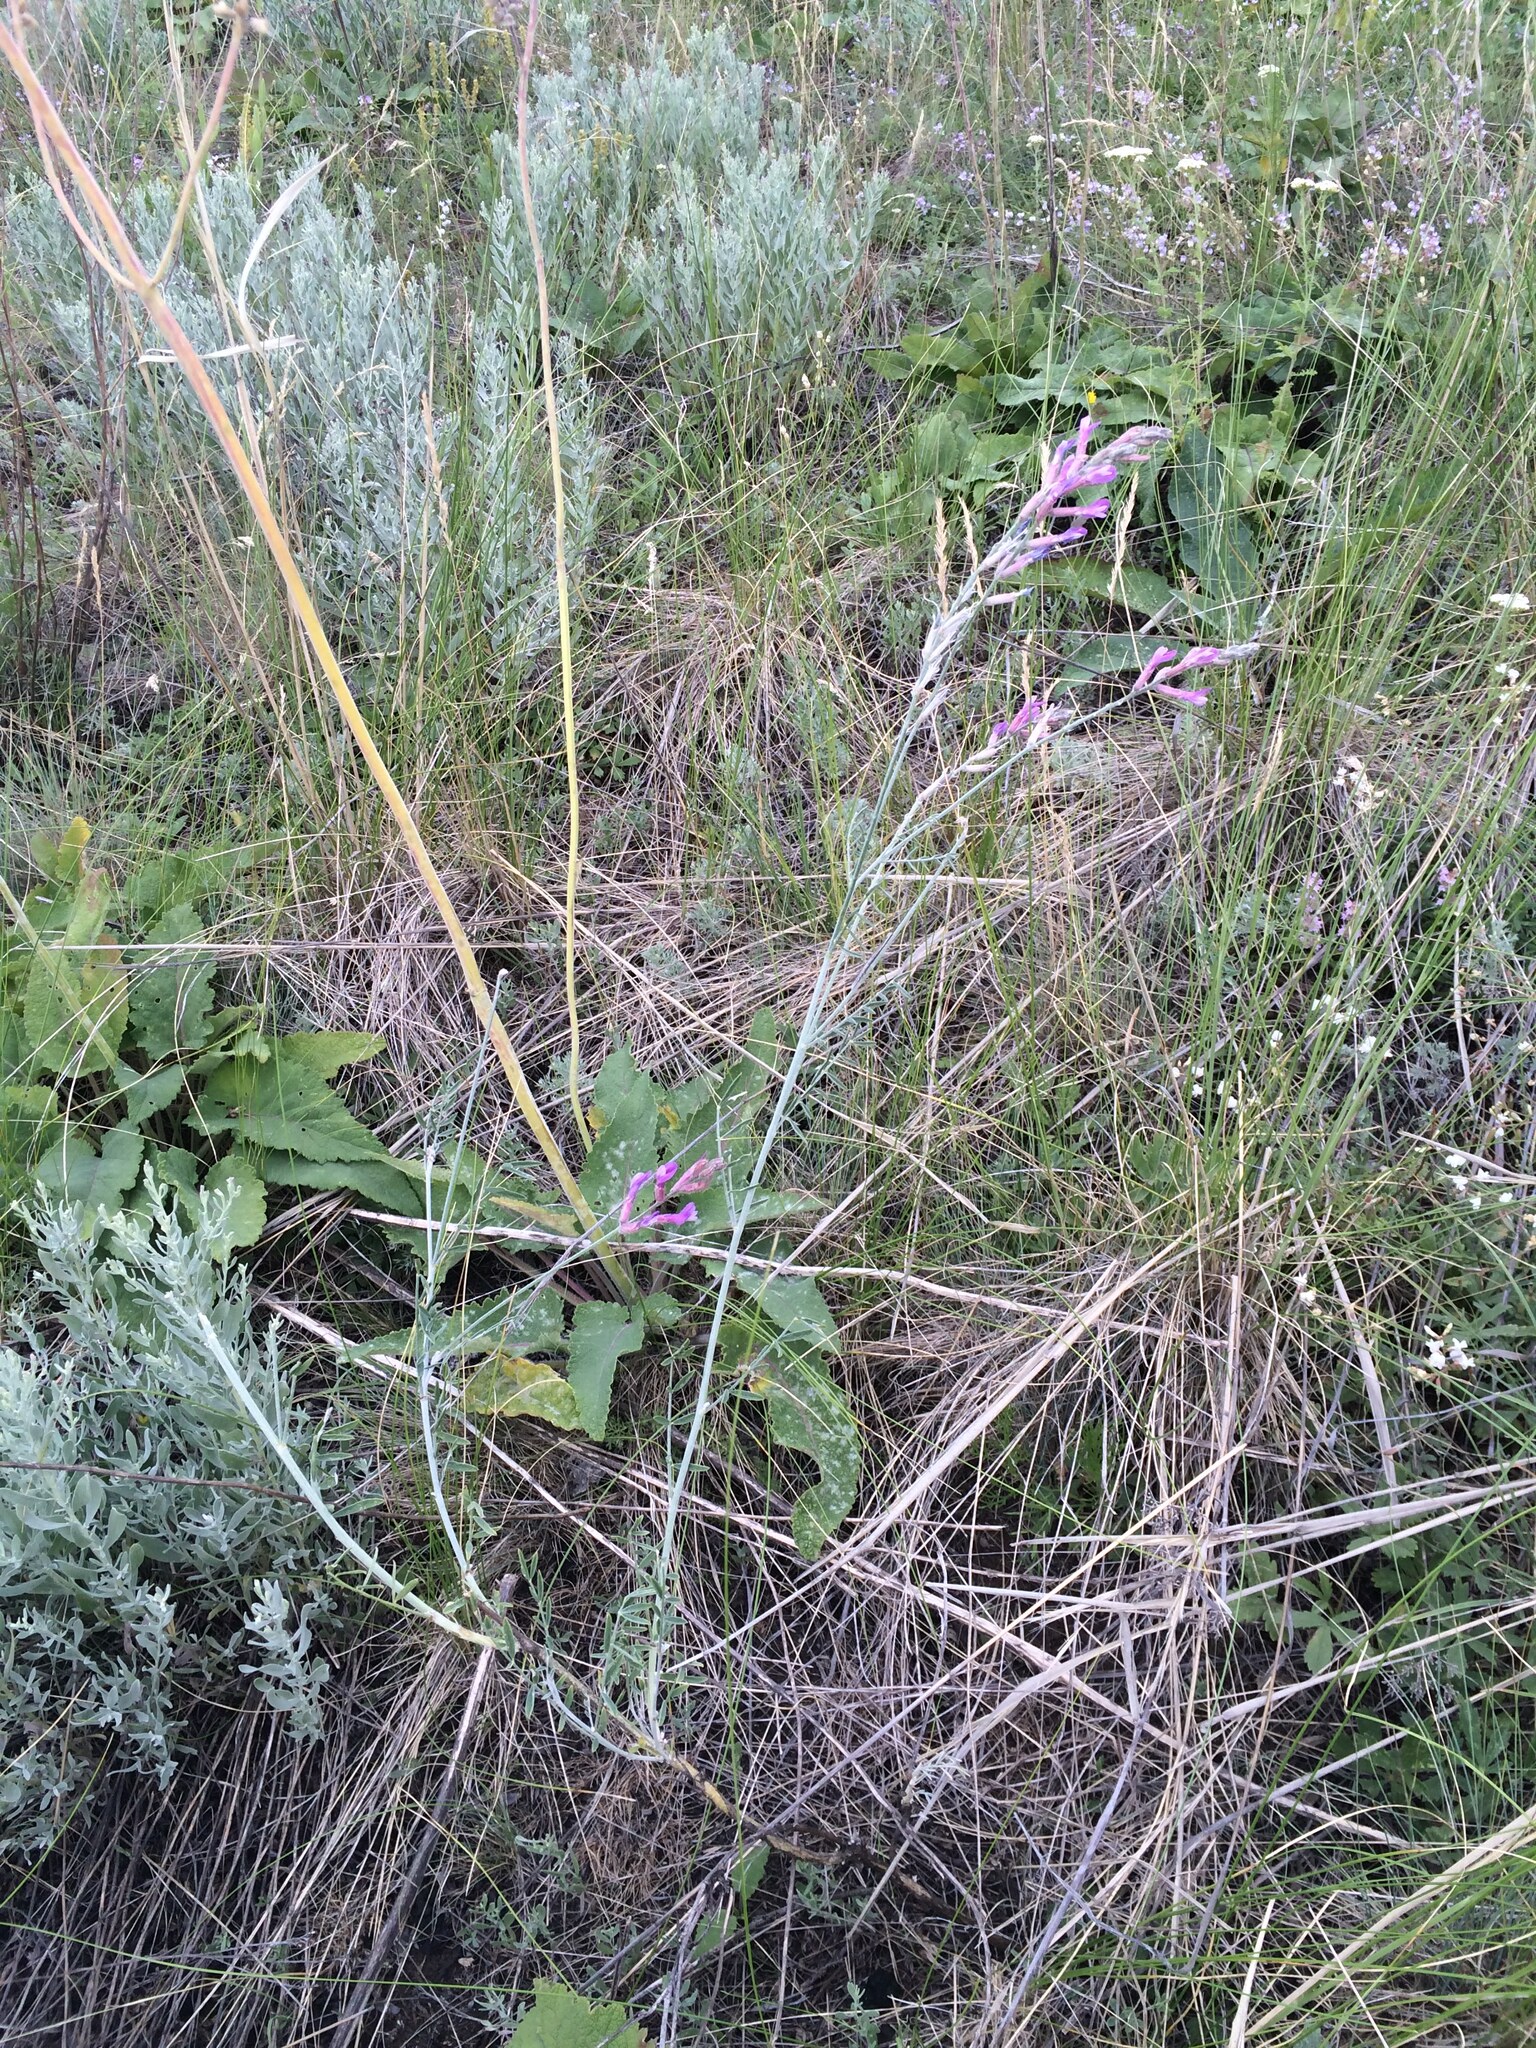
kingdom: Plantae
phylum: Tracheophyta
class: Magnoliopsida
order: Fabales
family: Fabaceae
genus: Astragalus
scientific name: Astragalus varius
